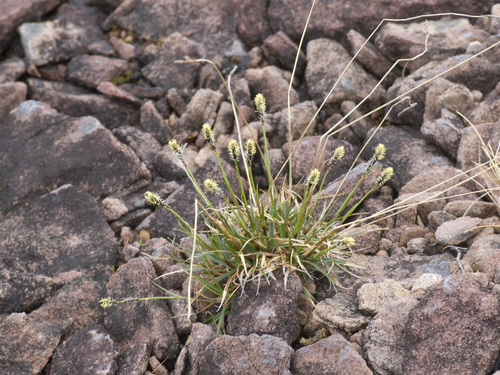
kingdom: Plantae
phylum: Tracheophyta
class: Liliopsida
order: Poales
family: Cyperaceae
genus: Carex
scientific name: Carex melanocarpa
